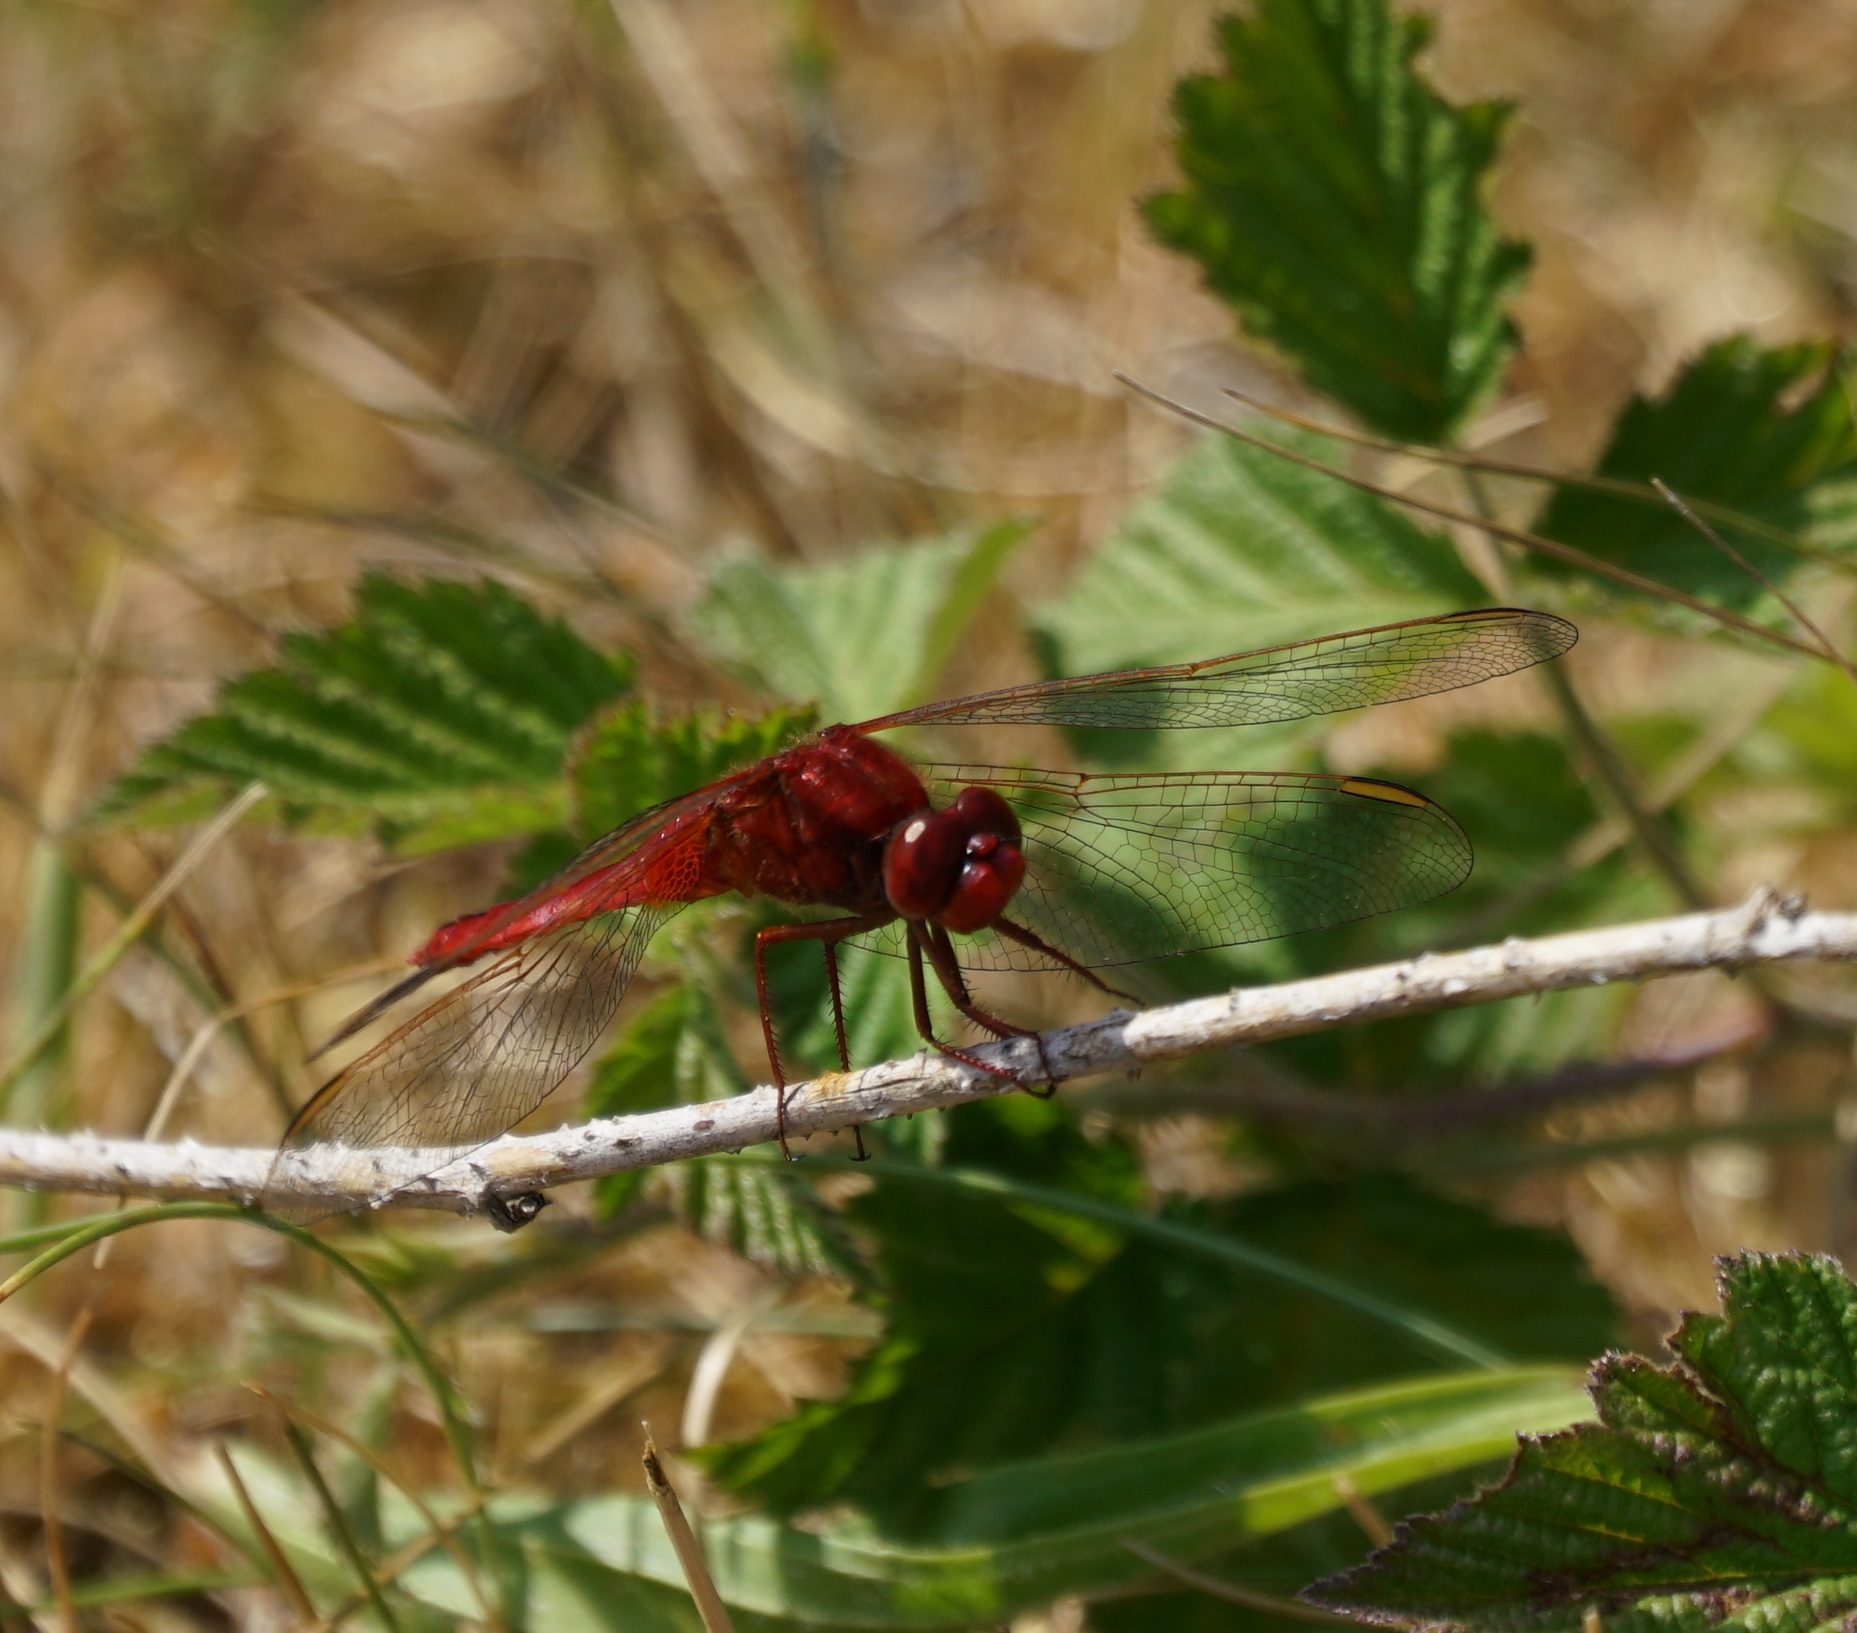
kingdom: Animalia
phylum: Arthropoda
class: Insecta
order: Odonata
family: Libellulidae
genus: Crocothemis
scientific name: Crocothemis erythraea
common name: Scarlet dragonfly
